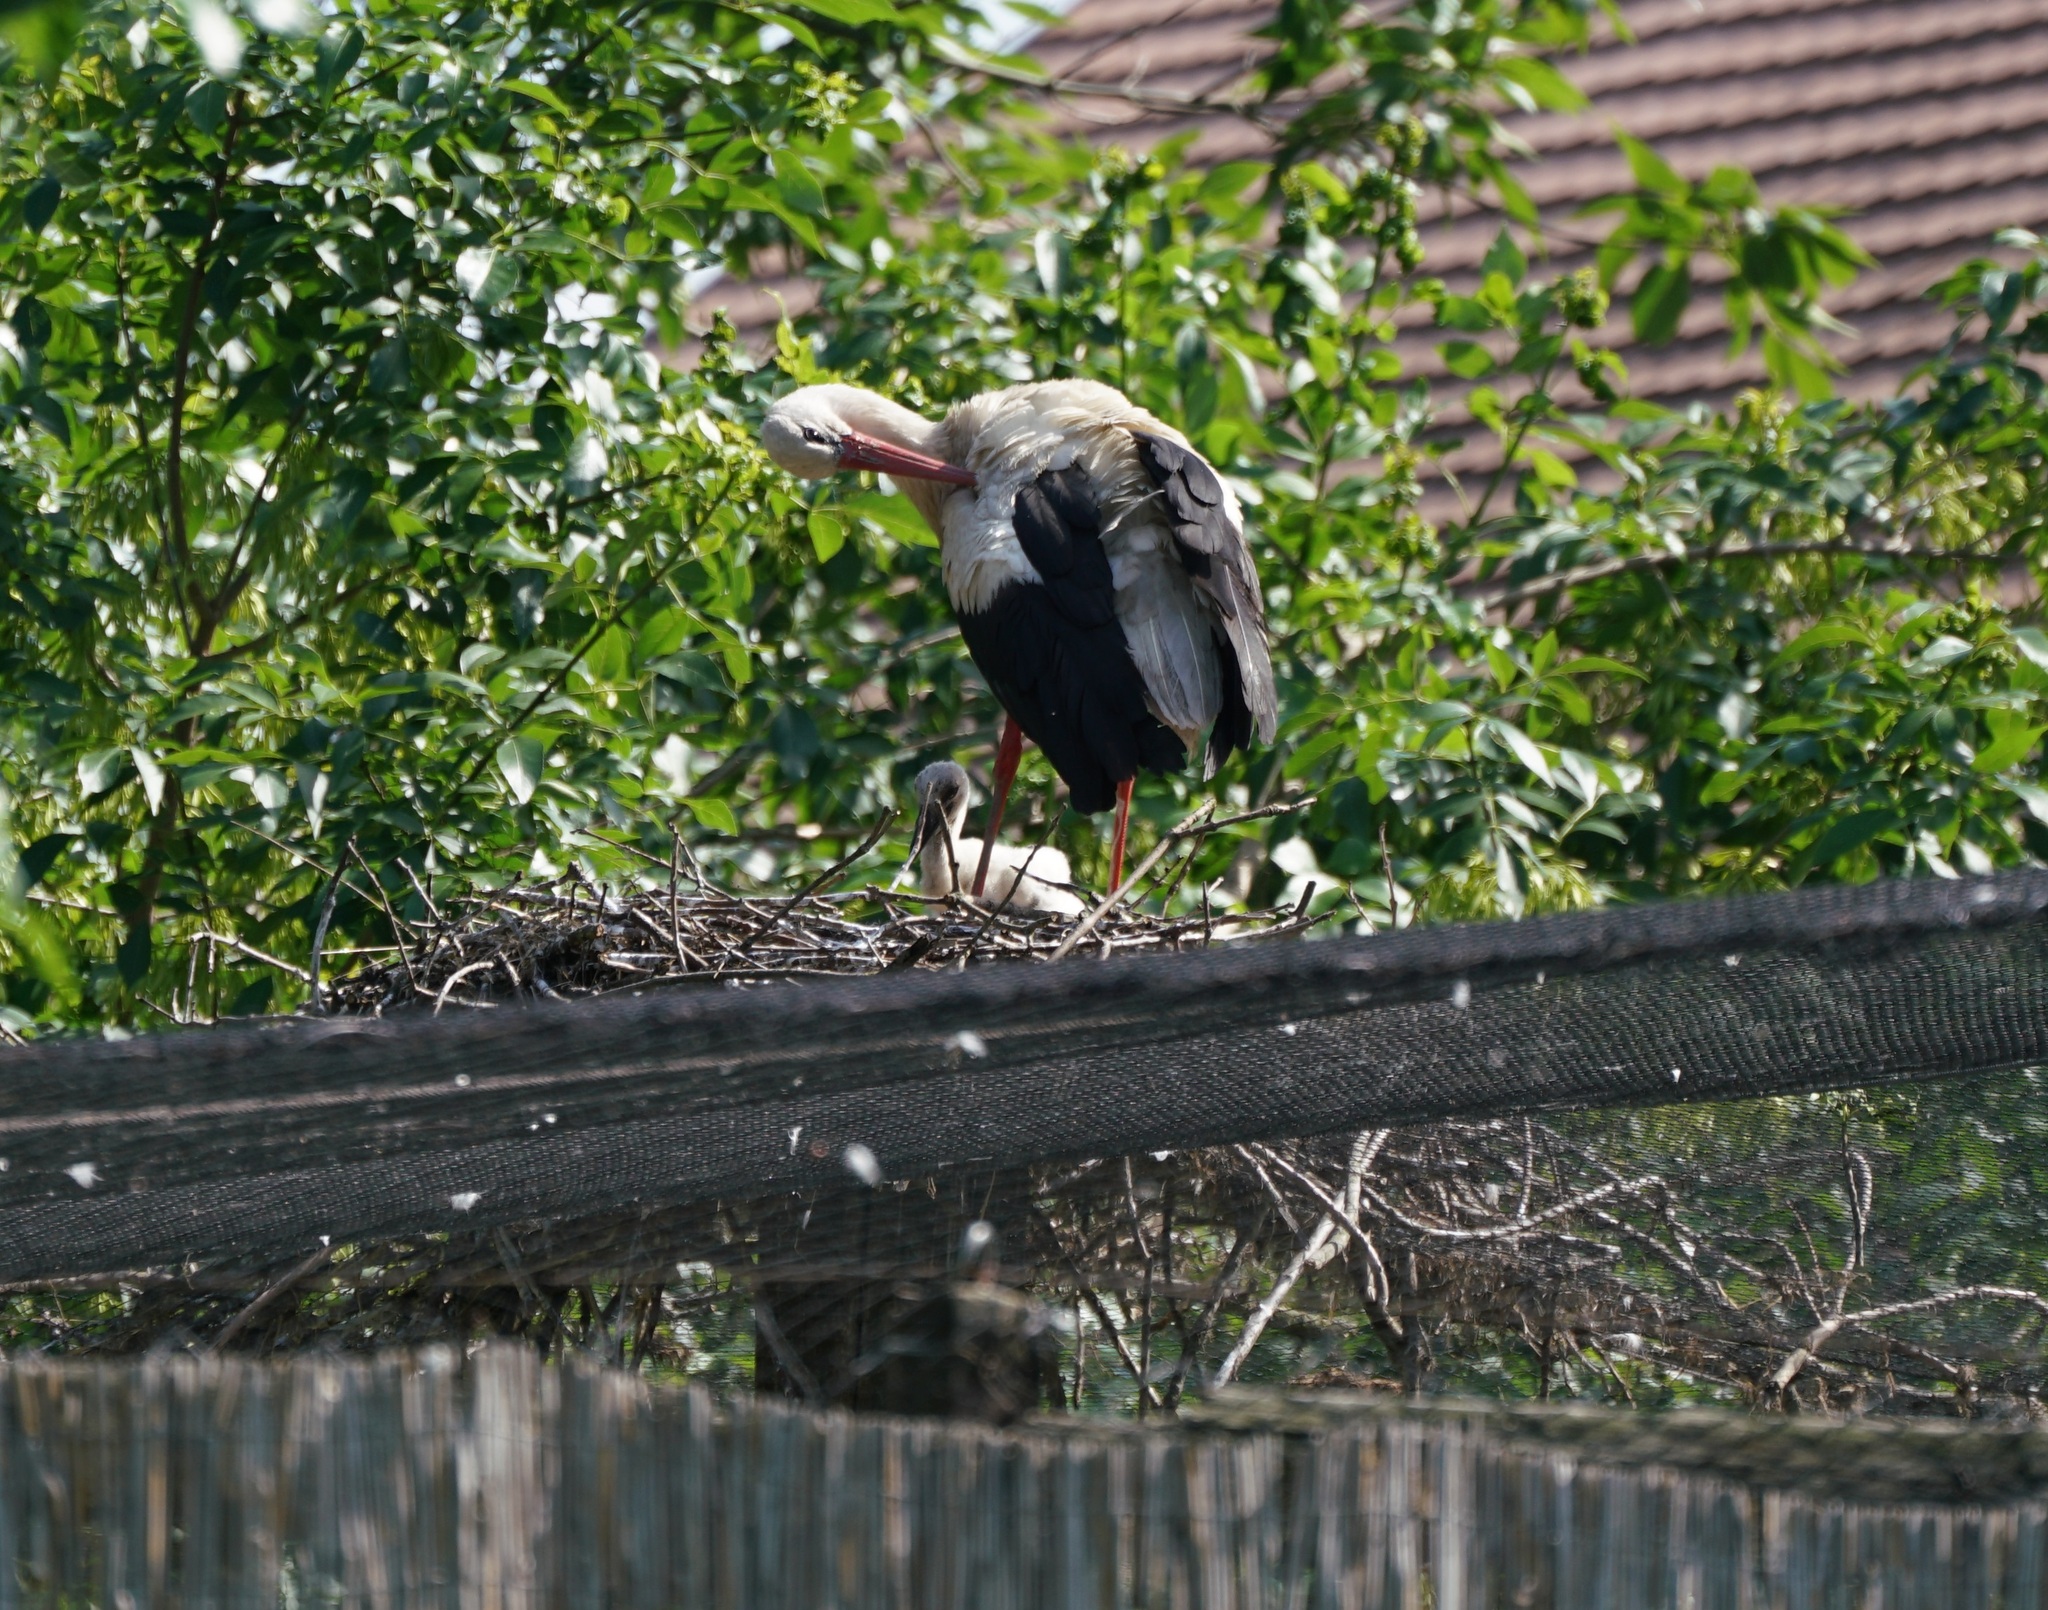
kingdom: Animalia
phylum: Chordata
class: Aves
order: Ciconiiformes
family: Ciconiidae
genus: Ciconia
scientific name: Ciconia ciconia
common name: White stork
